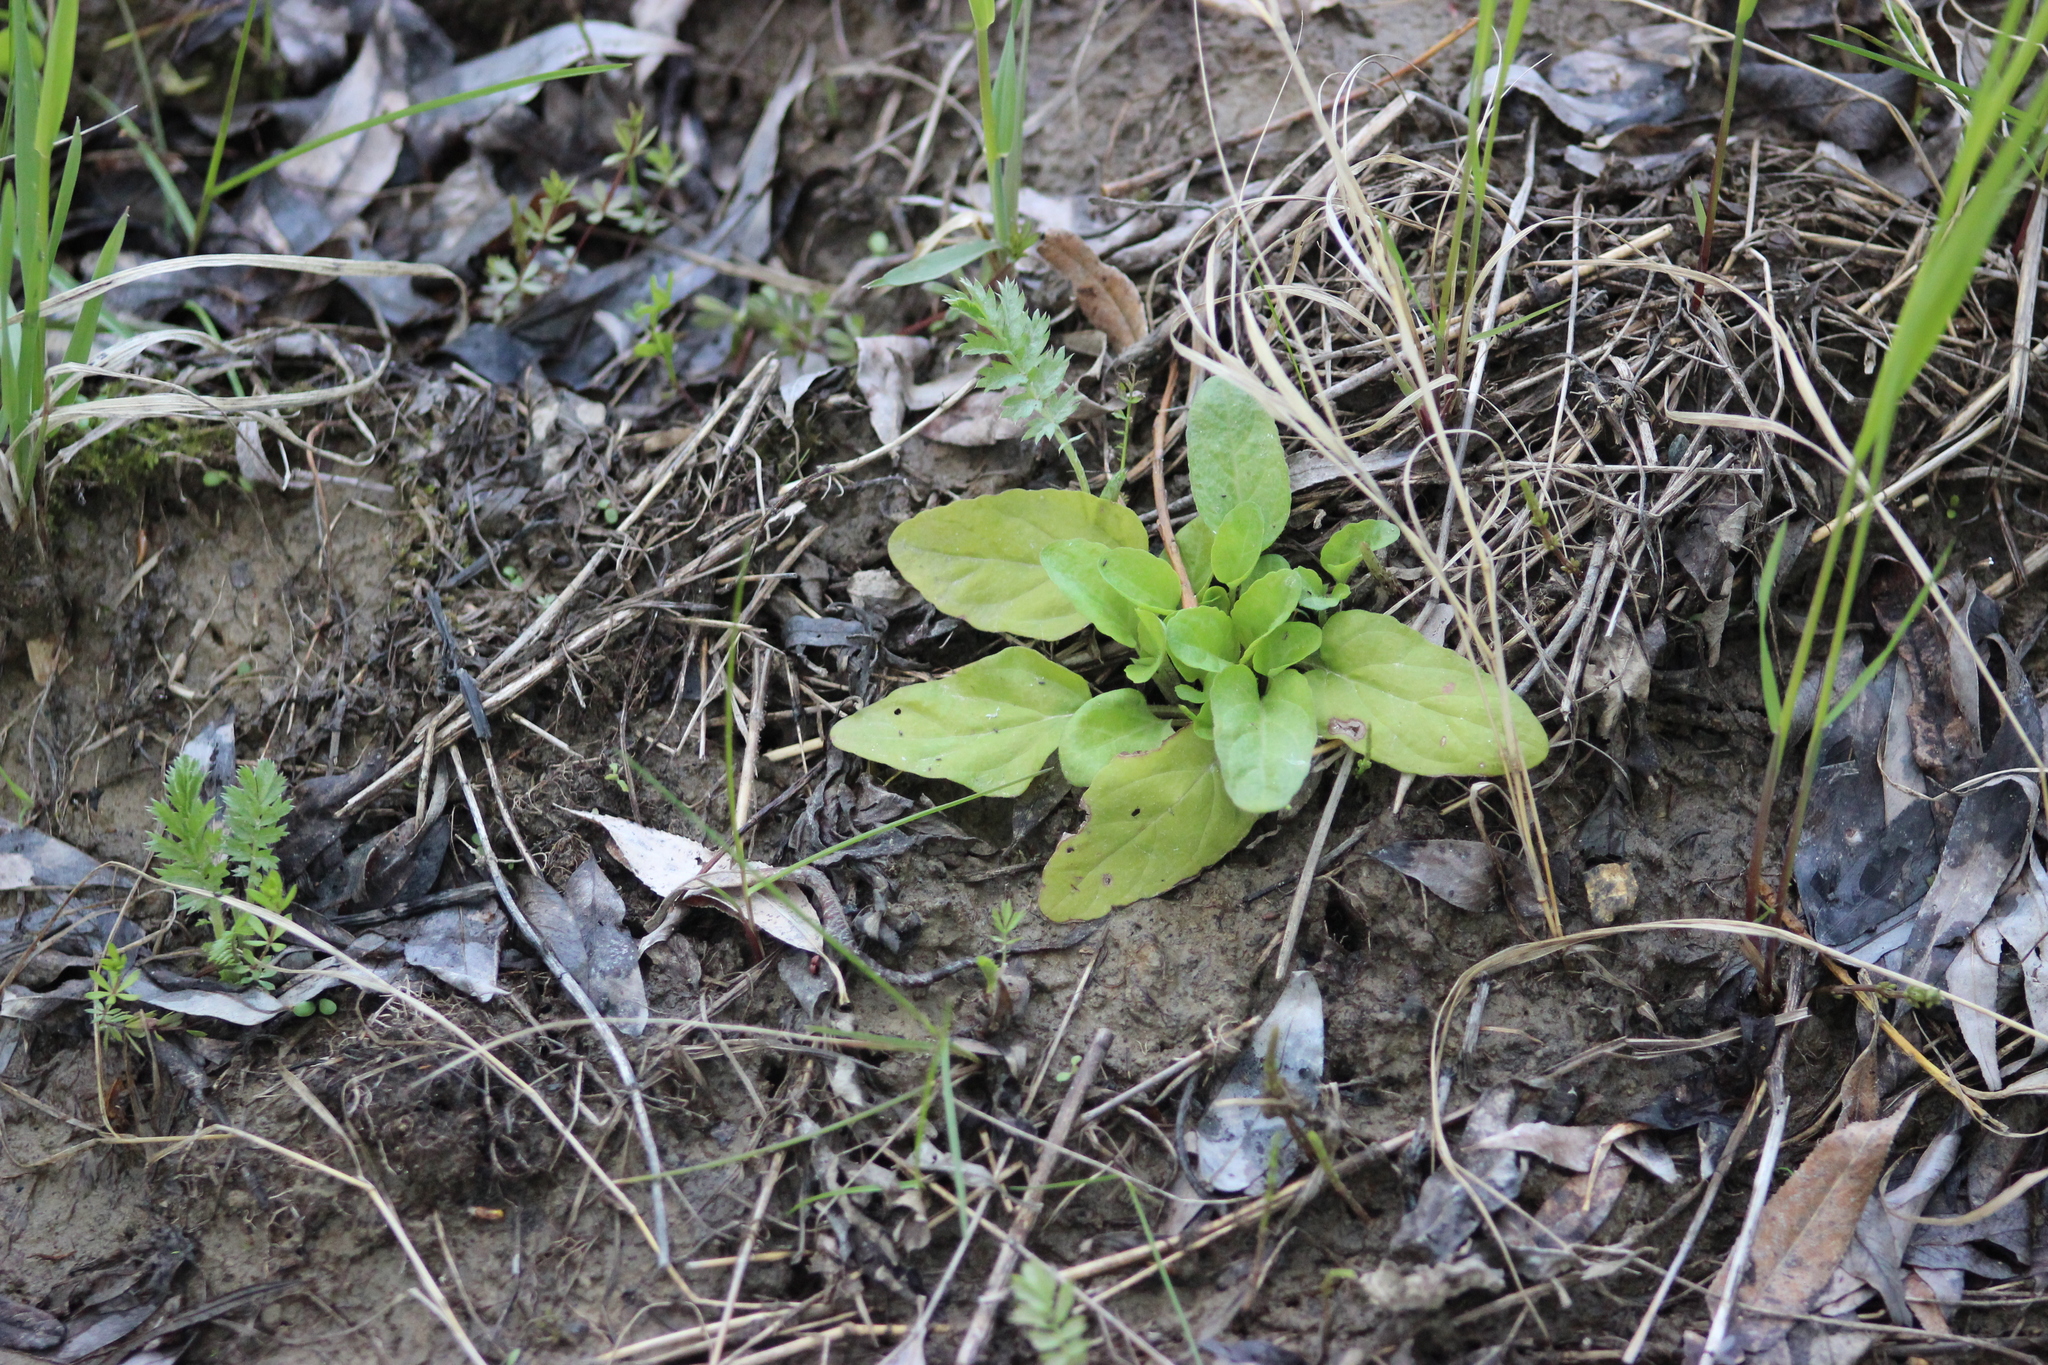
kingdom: Plantae
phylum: Tracheophyta
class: Magnoliopsida
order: Lamiales
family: Lamiaceae
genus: Prunella
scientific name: Prunella vulgaris
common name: Heal-all
